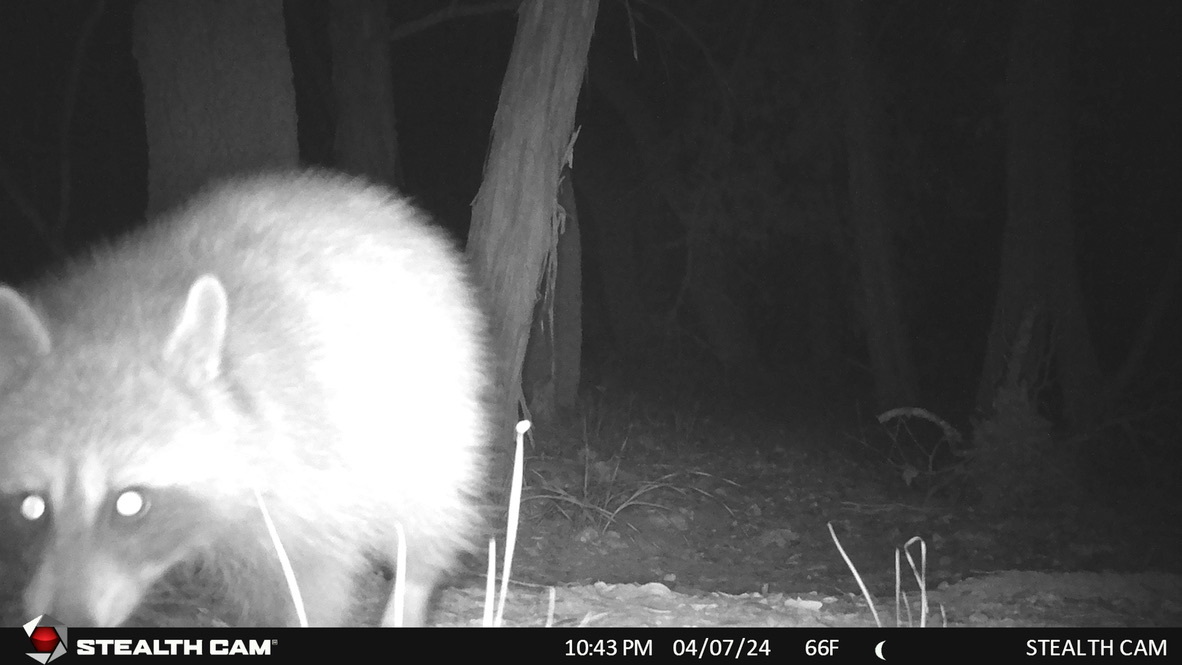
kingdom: Animalia
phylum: Chordata
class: Mammalia
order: Carnivora
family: Procyonidae
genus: Procyon
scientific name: Procyon lotor
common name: Raccoon
